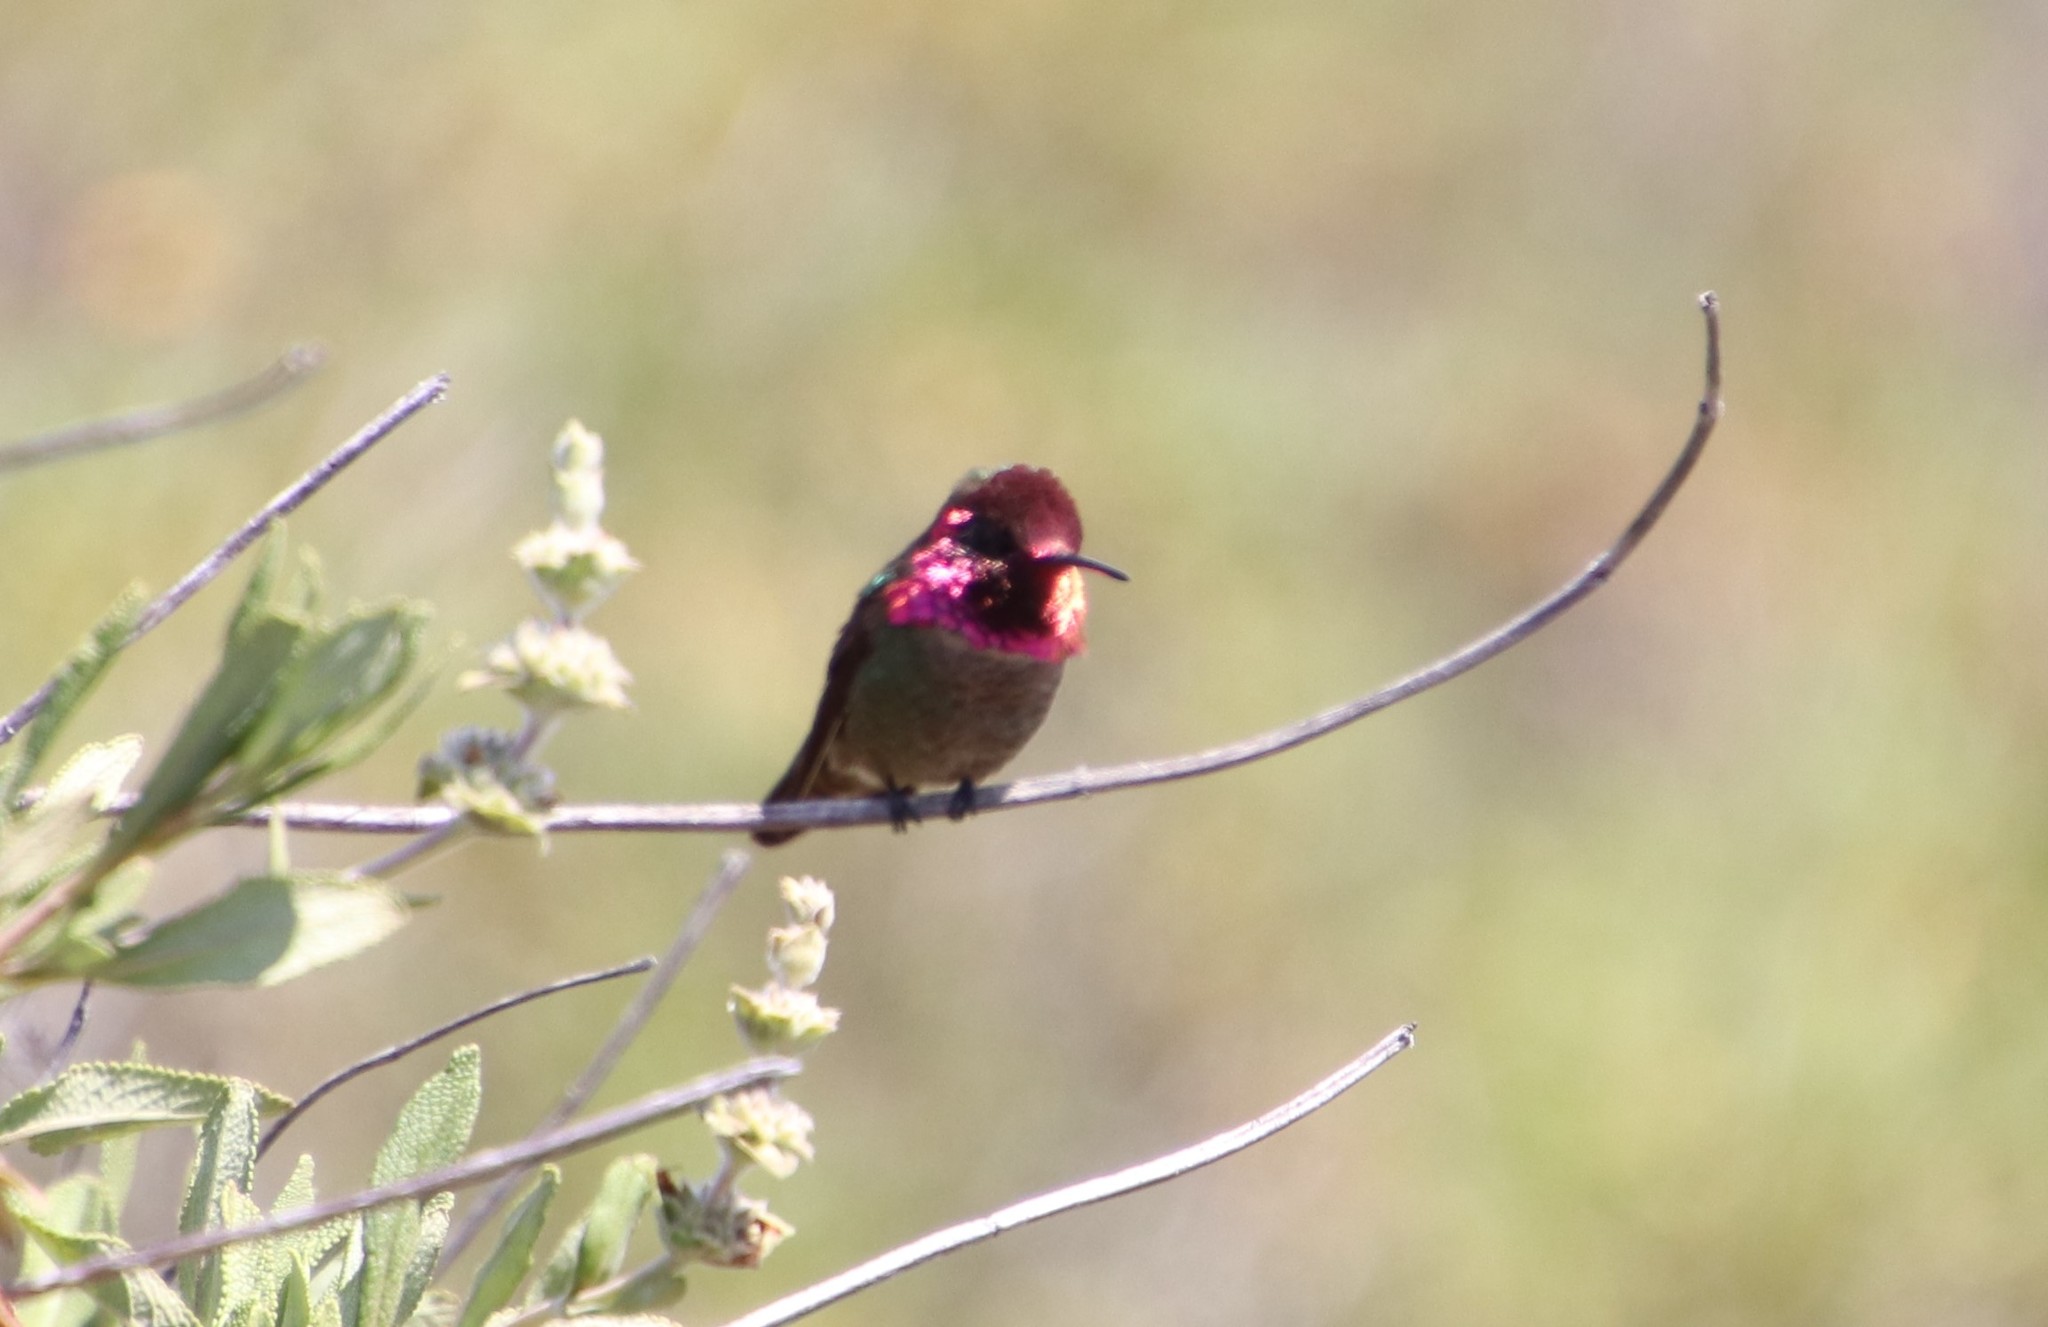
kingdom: Animalia
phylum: Chordata
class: Aves
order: Apodiformes
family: Trochilidae
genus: Calypte
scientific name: Calypte anna
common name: Anna's hummingbird
